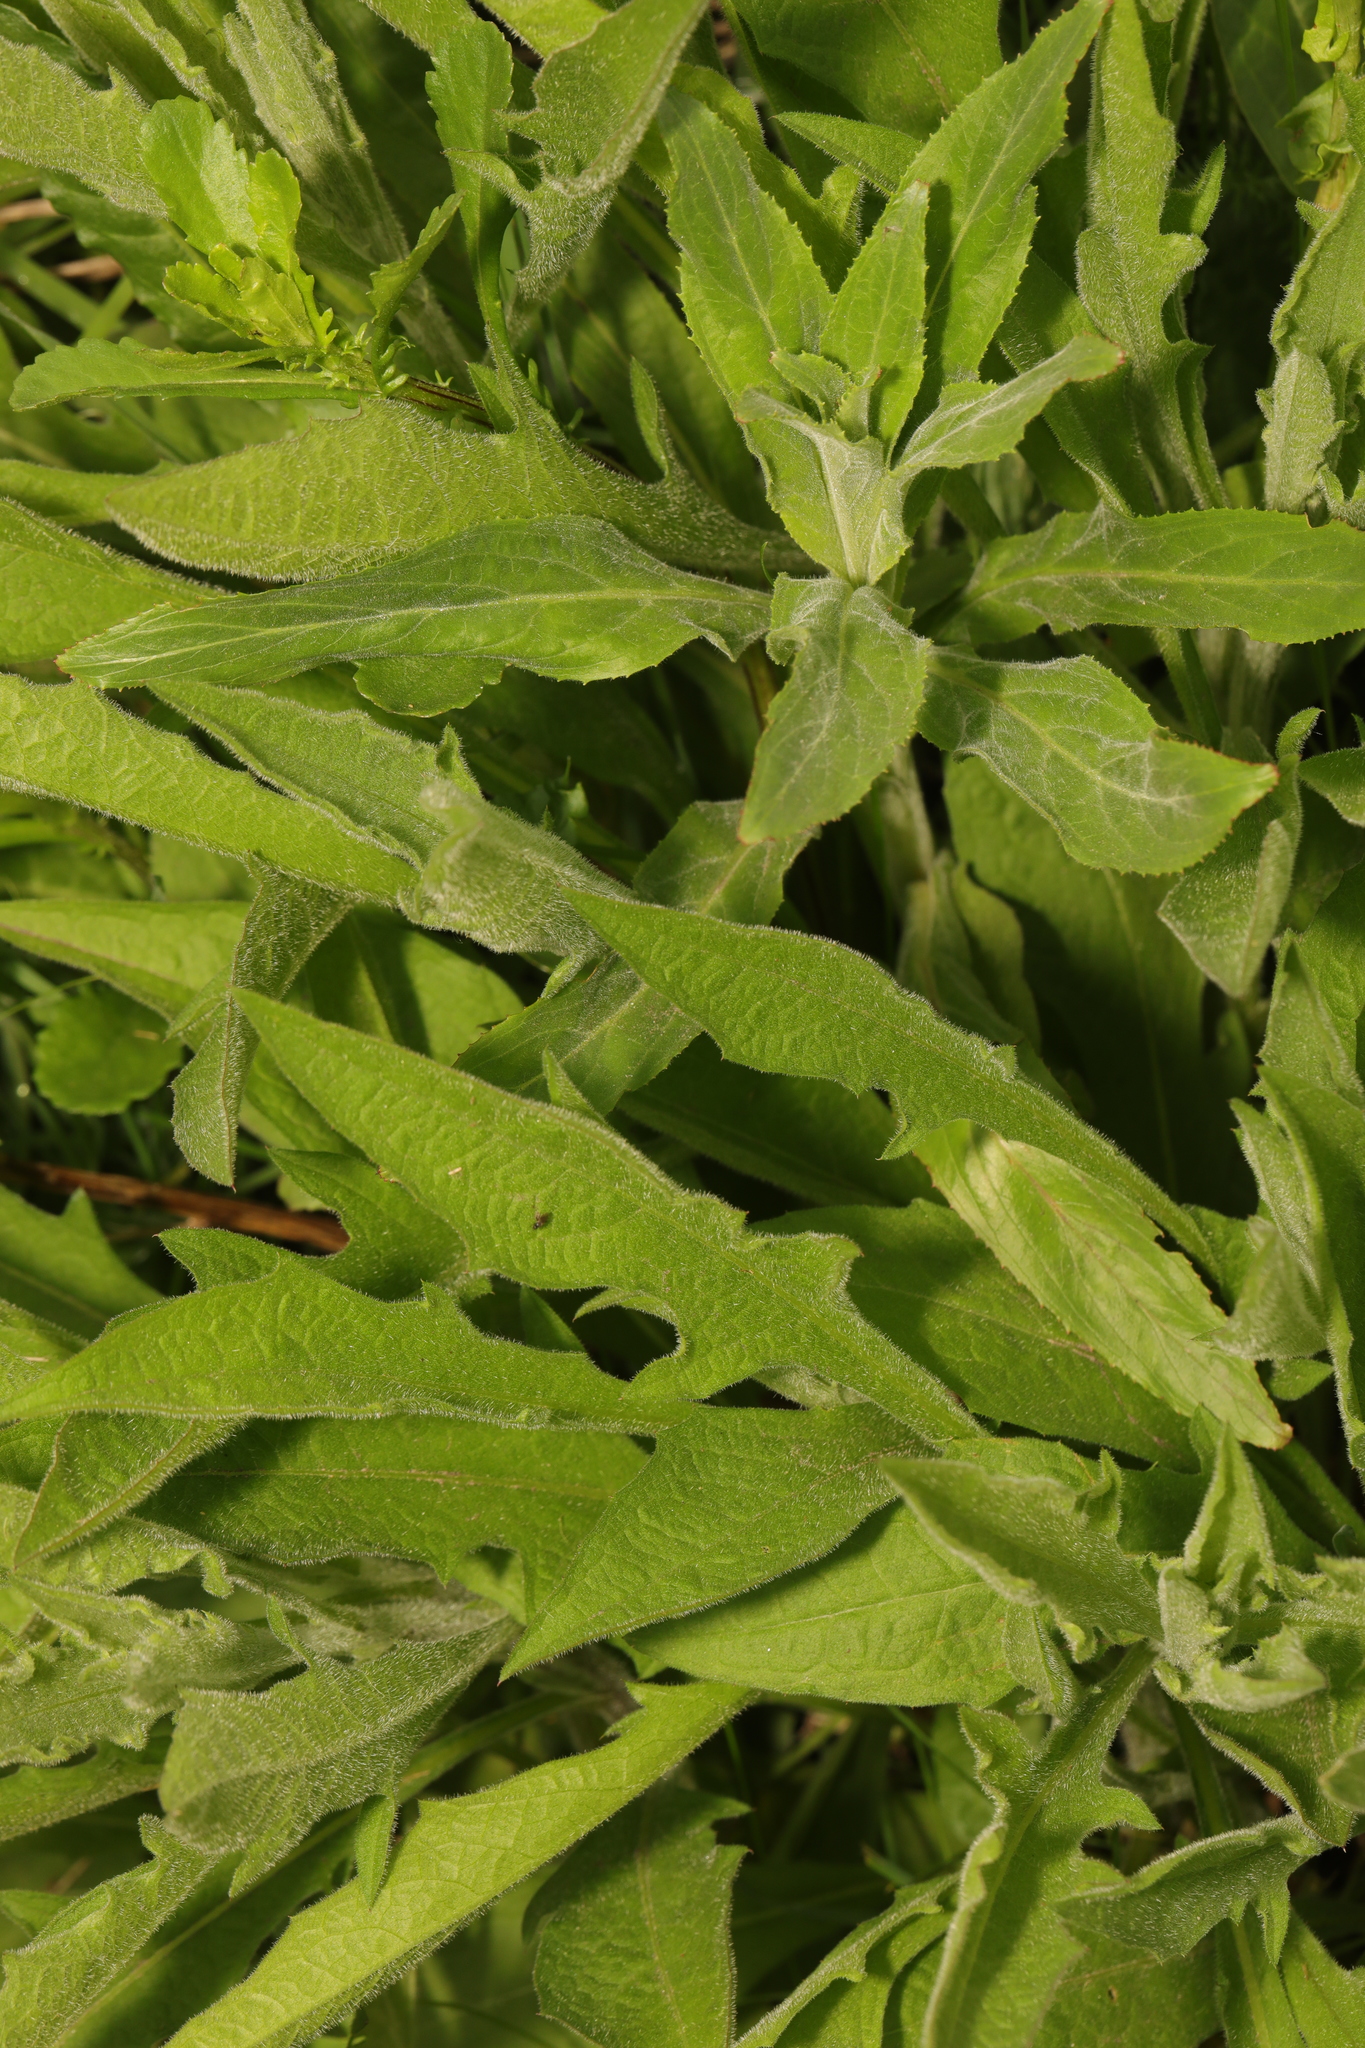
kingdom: Plantae
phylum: Tracheophyta
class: Magnoliopsida
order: Asterales
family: Asteraceae
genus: Centaurea
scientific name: Centaurea nigra
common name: Lesser knapweed
